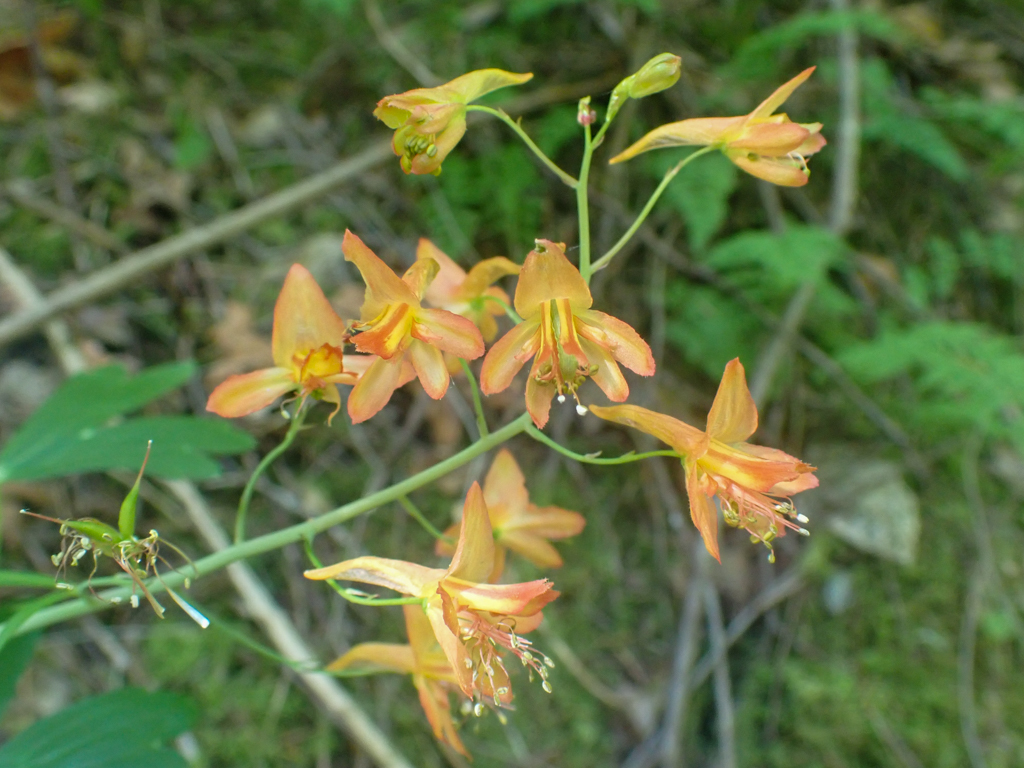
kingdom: Plantae
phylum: Tracheophyta
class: Magnoliopsida
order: Ranunculales
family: Ranunculaceae
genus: Delphinium
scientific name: Delphinium nudicaule
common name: Red larkspur
